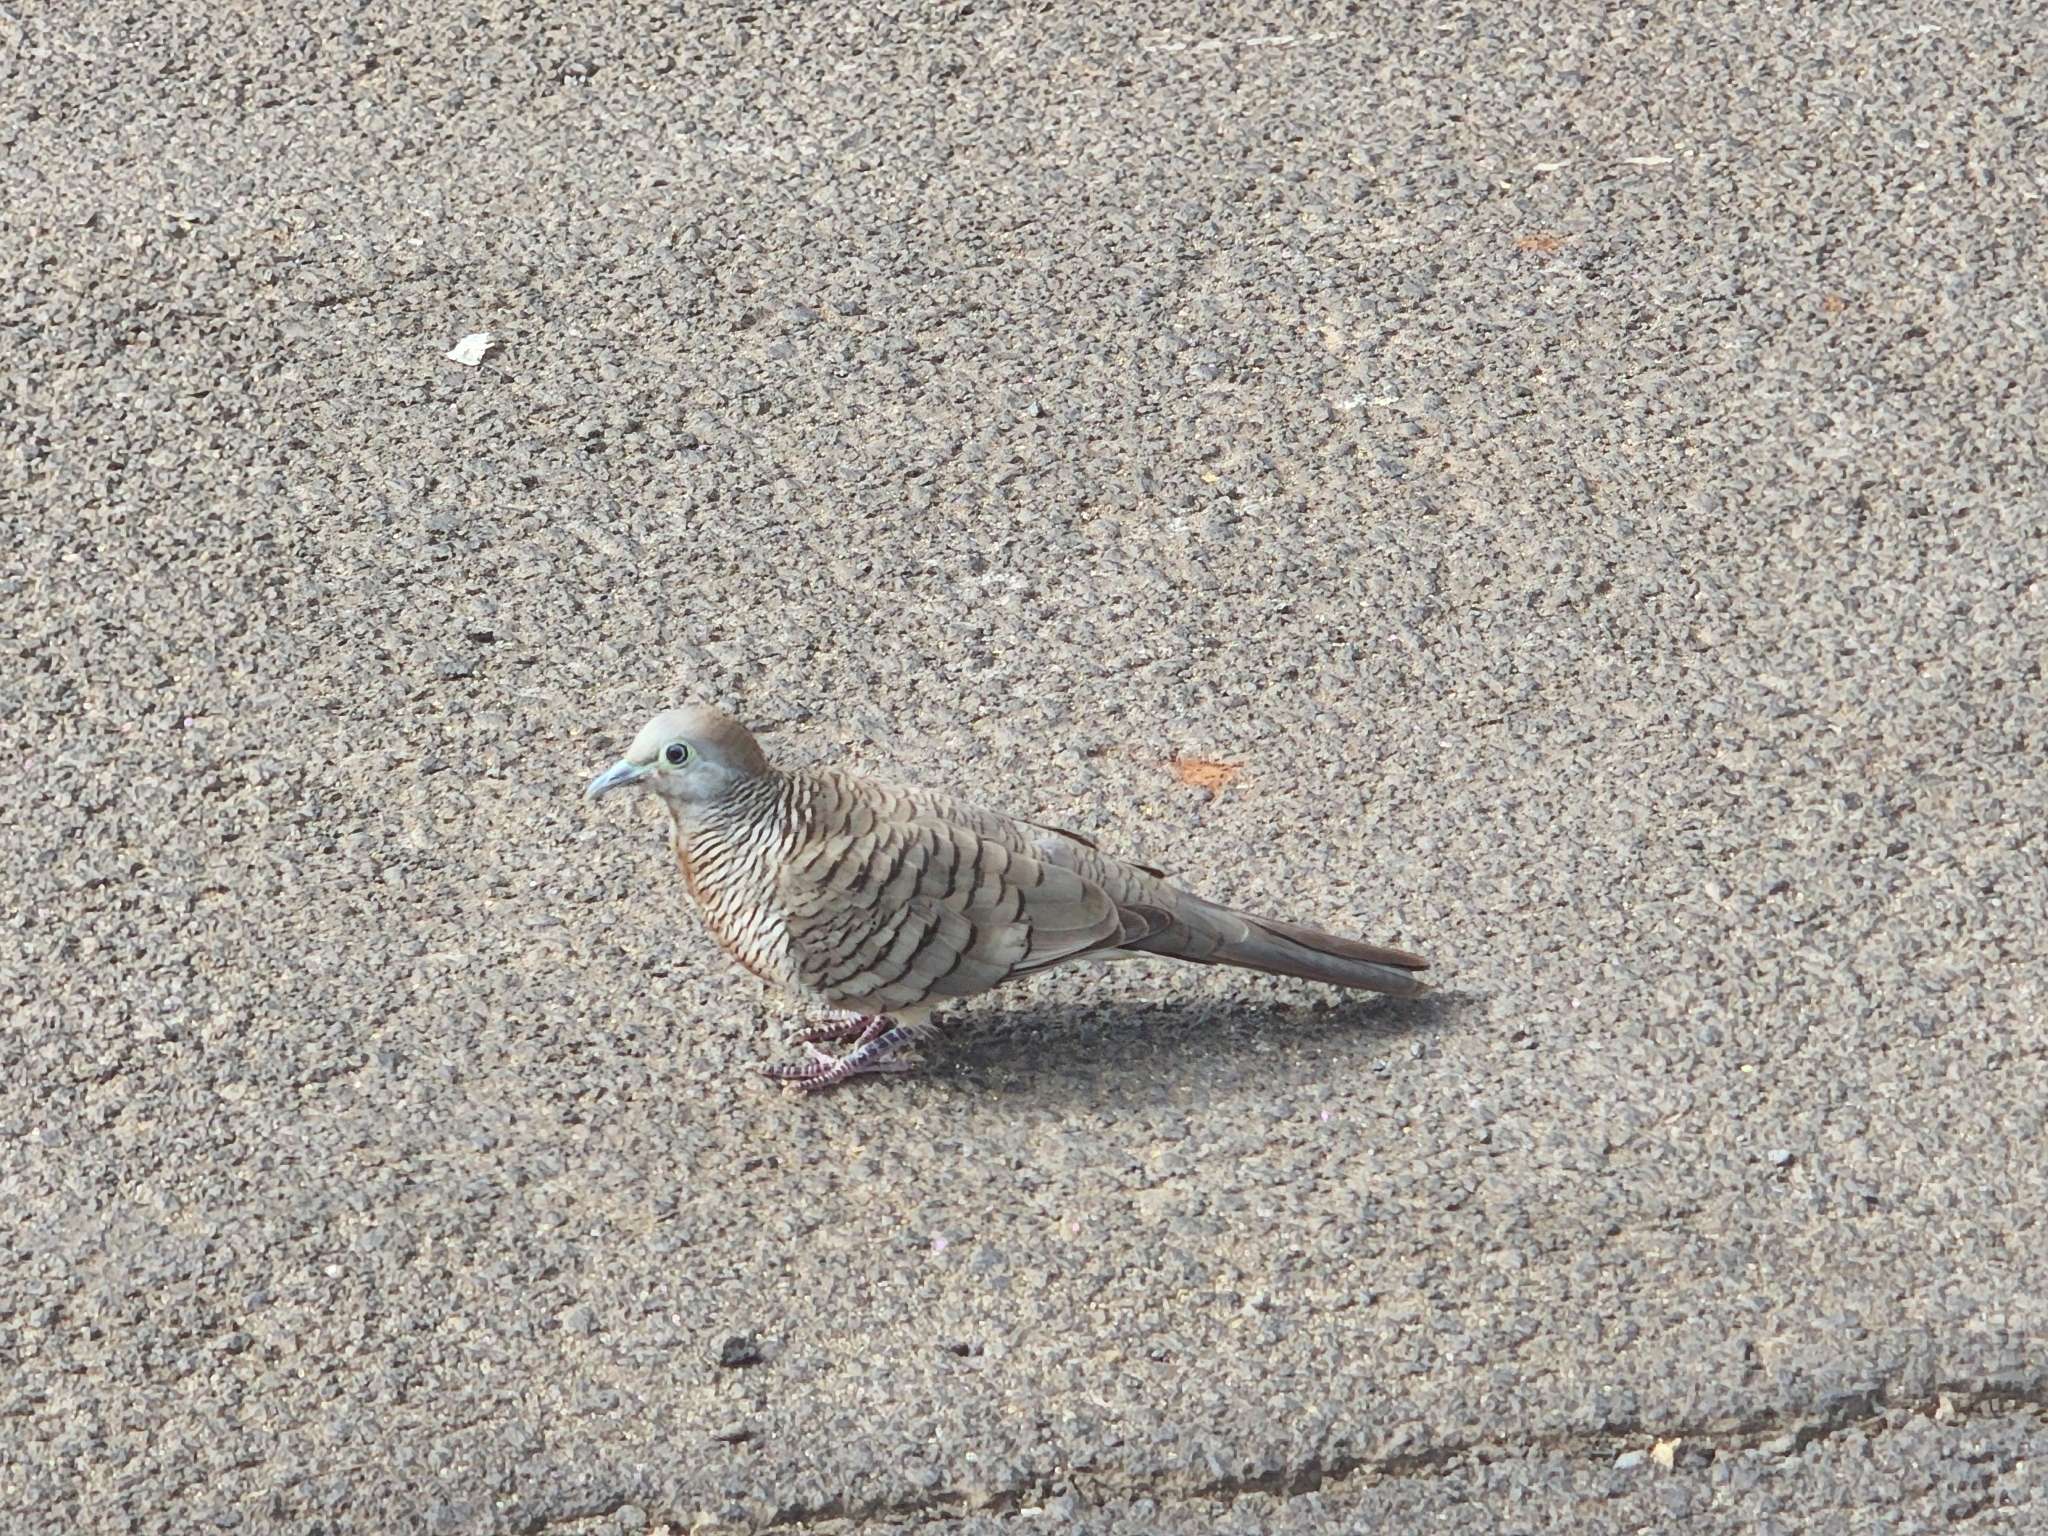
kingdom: Animalia
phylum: Chordata
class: Aves
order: Columbiformes
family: Columbidae
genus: Geopelia
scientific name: Geopelia striata
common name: Zebra dove
